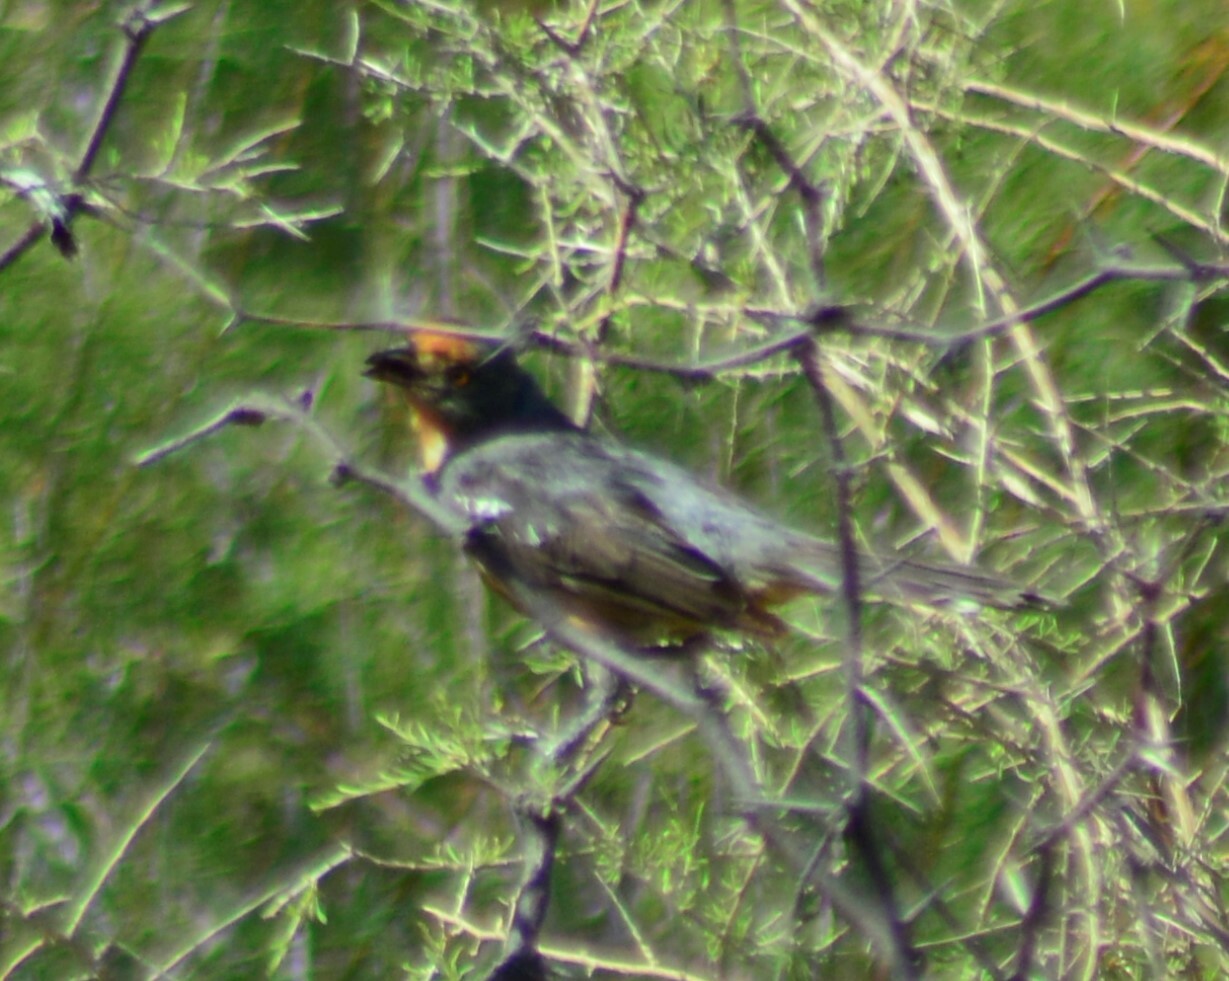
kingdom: Animalia
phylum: Chordata
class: Aves
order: Passeriformes
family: Cotingidae
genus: Phytotoma
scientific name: Phytotoma rutila
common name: White-tipped plantcutter
